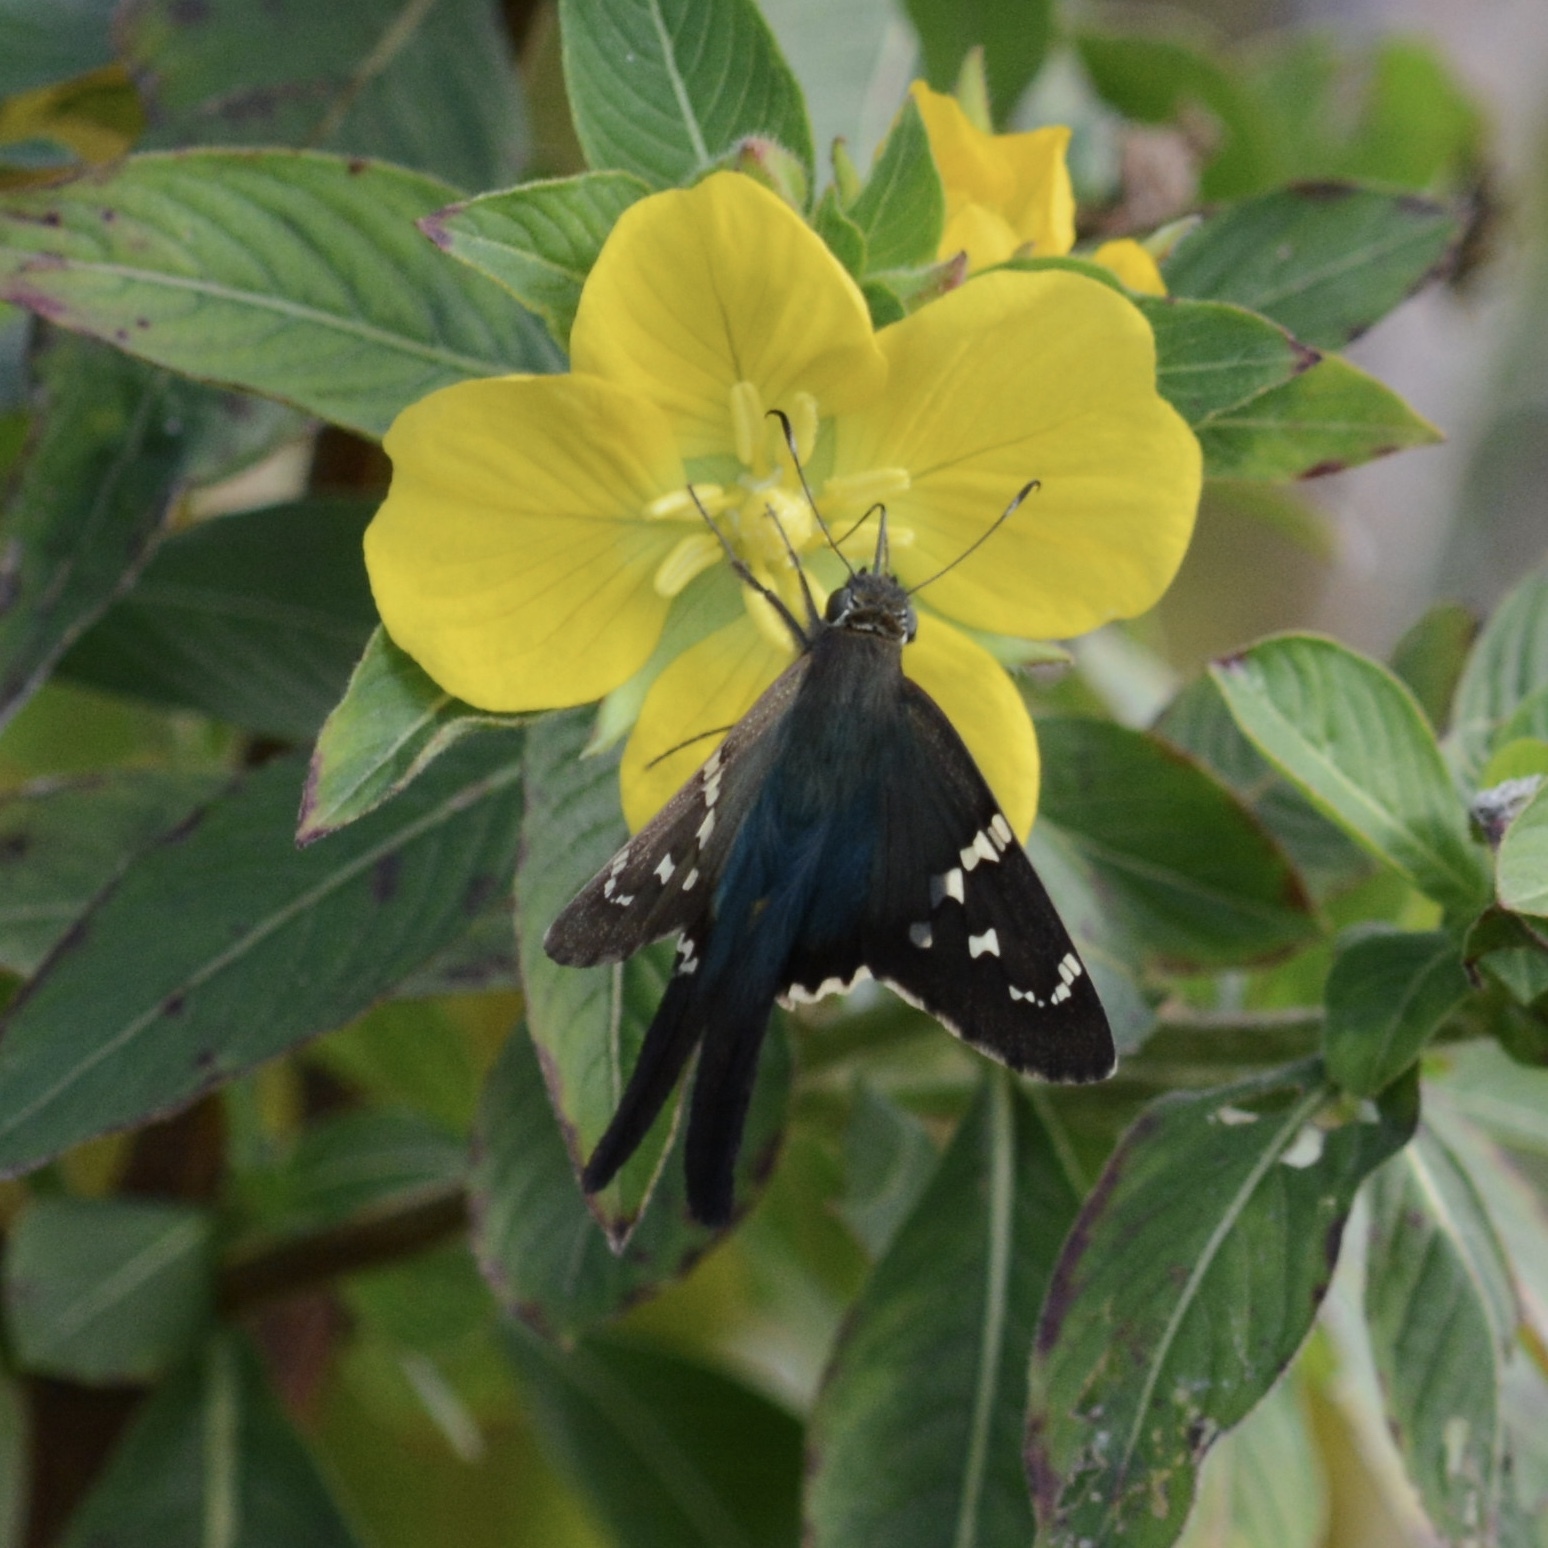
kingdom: Animalia
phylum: Arthropoda
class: Insecta
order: Lepidoptera
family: Hesperiidae
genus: Urbanus
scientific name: Urbanus proteus
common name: Long-tailed skipper
